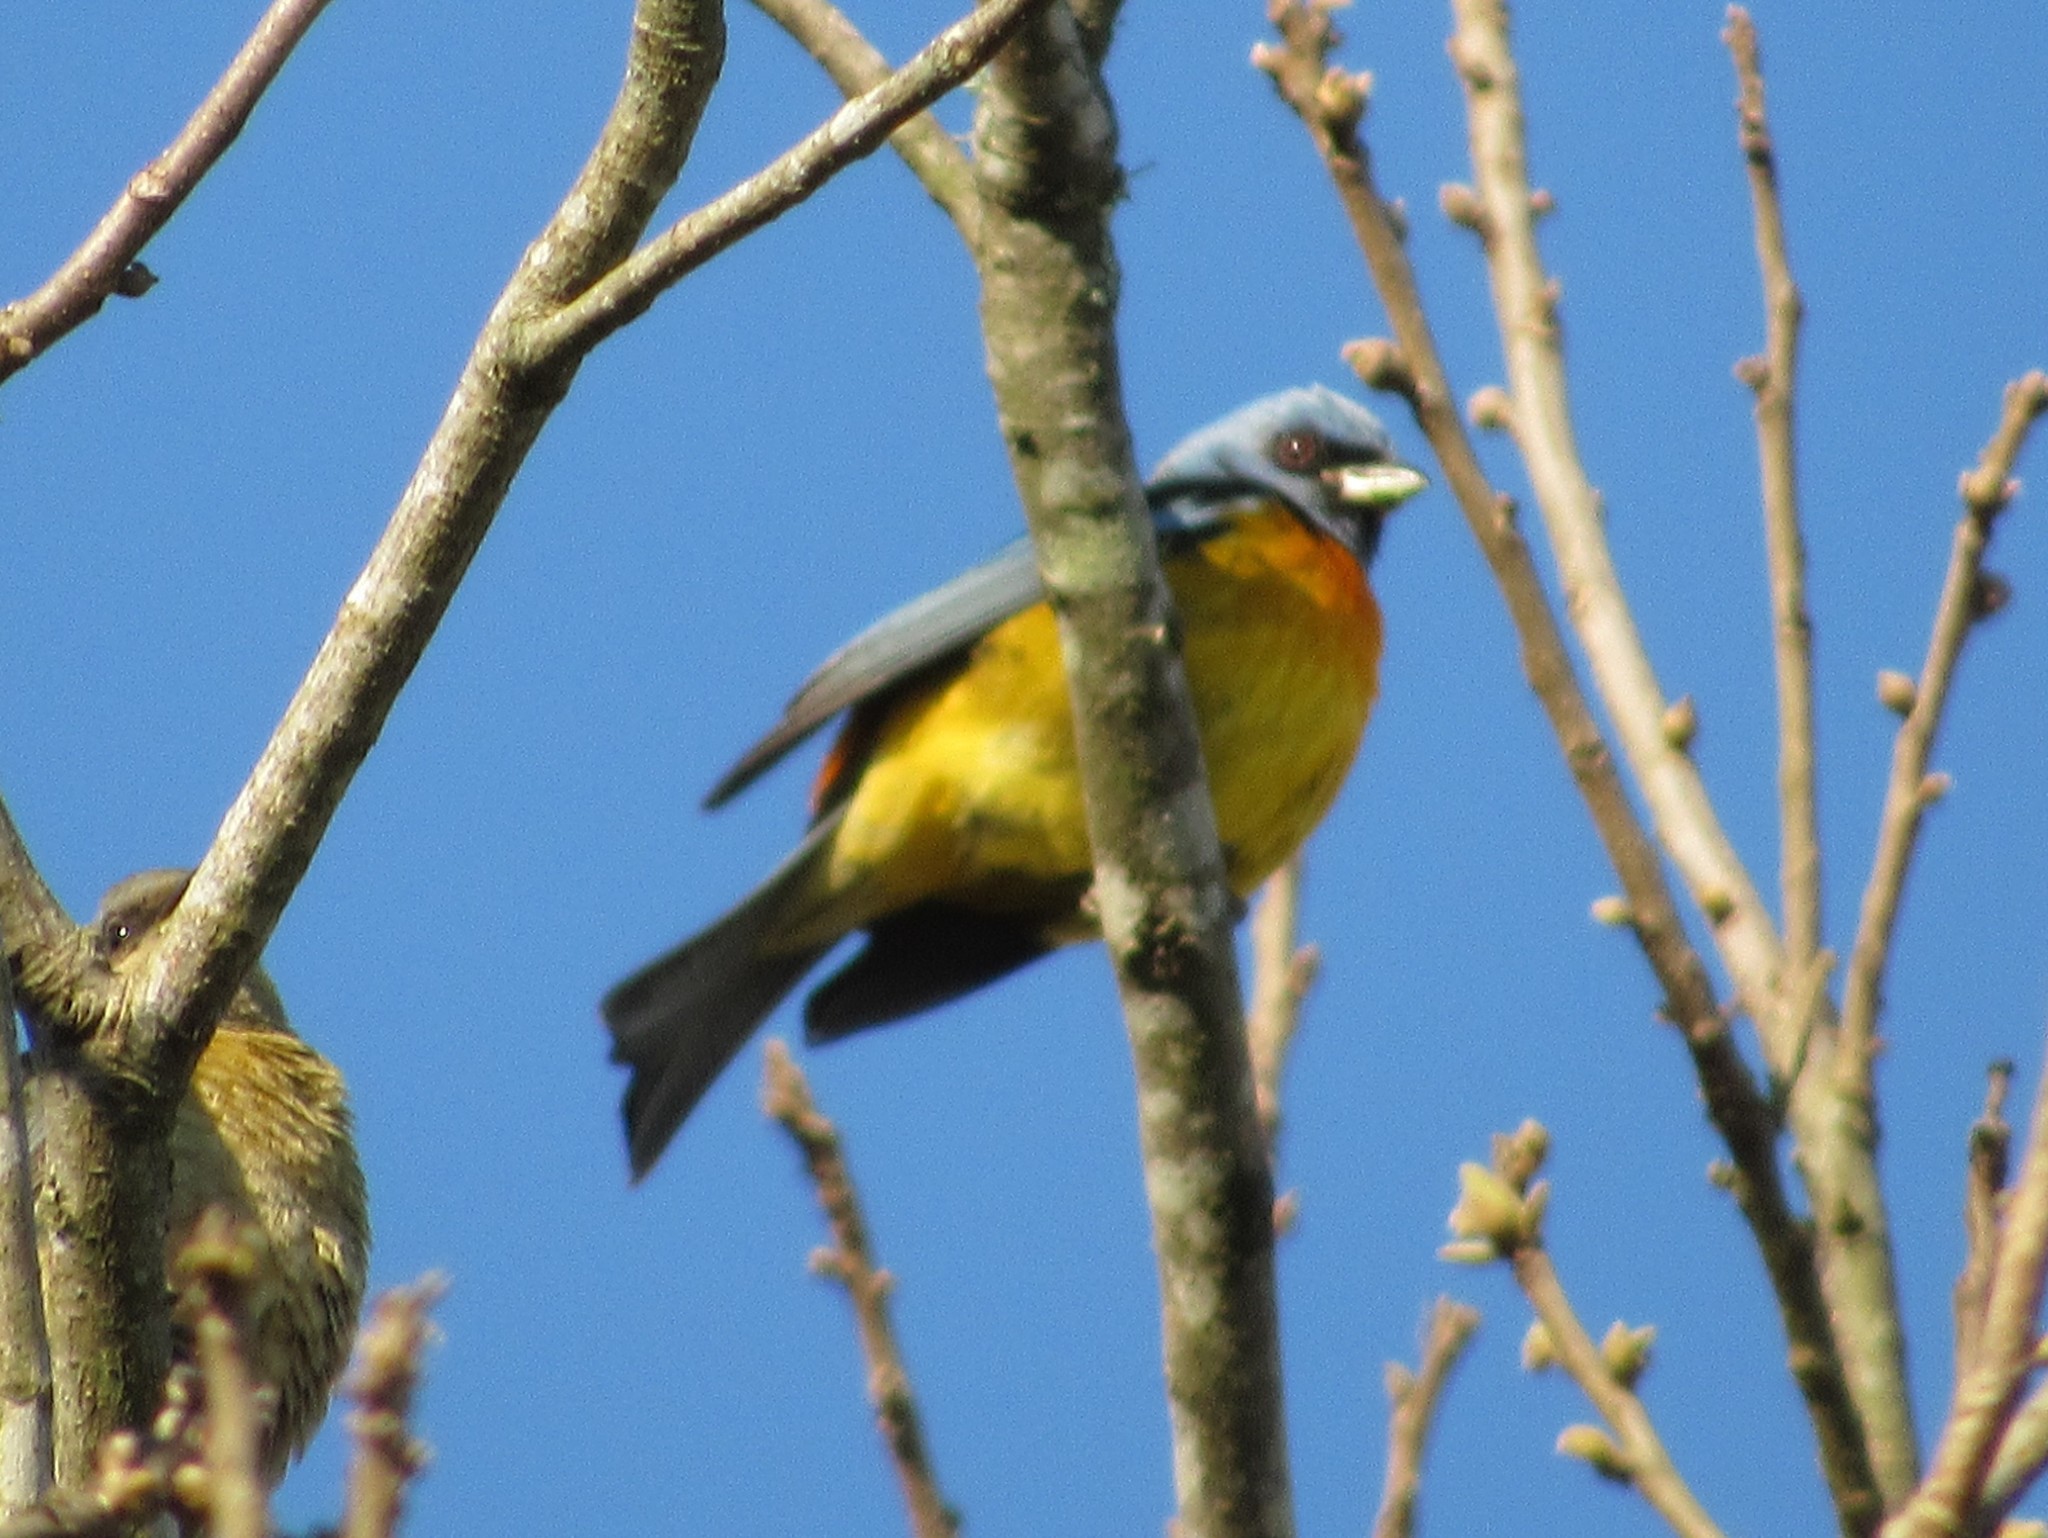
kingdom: Animalia
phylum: Chordata
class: Aves
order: Passeriformes
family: Thraupidae
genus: Rauenia
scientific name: Rauenia bonariensis
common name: Blue-and-yellow tanager
